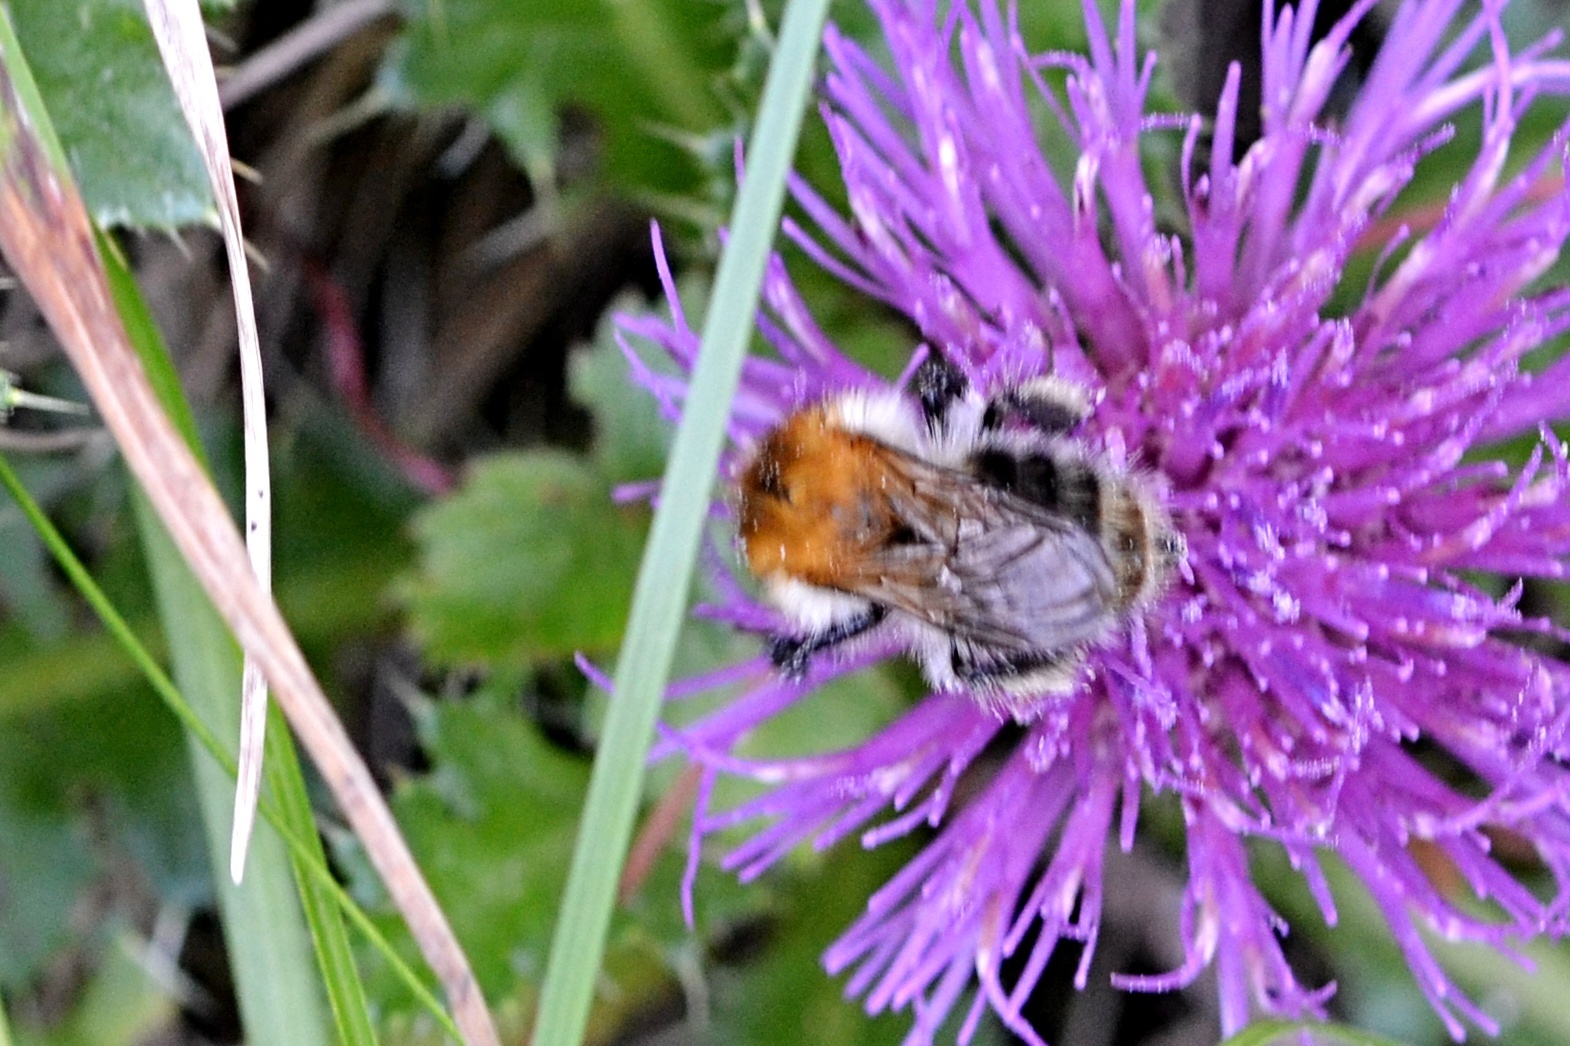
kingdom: Animalia
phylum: Arthropoda
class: Insecta
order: Hymenoptera
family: Apidae
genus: Bombus
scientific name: Bombus pascuorum
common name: Common carder bee
